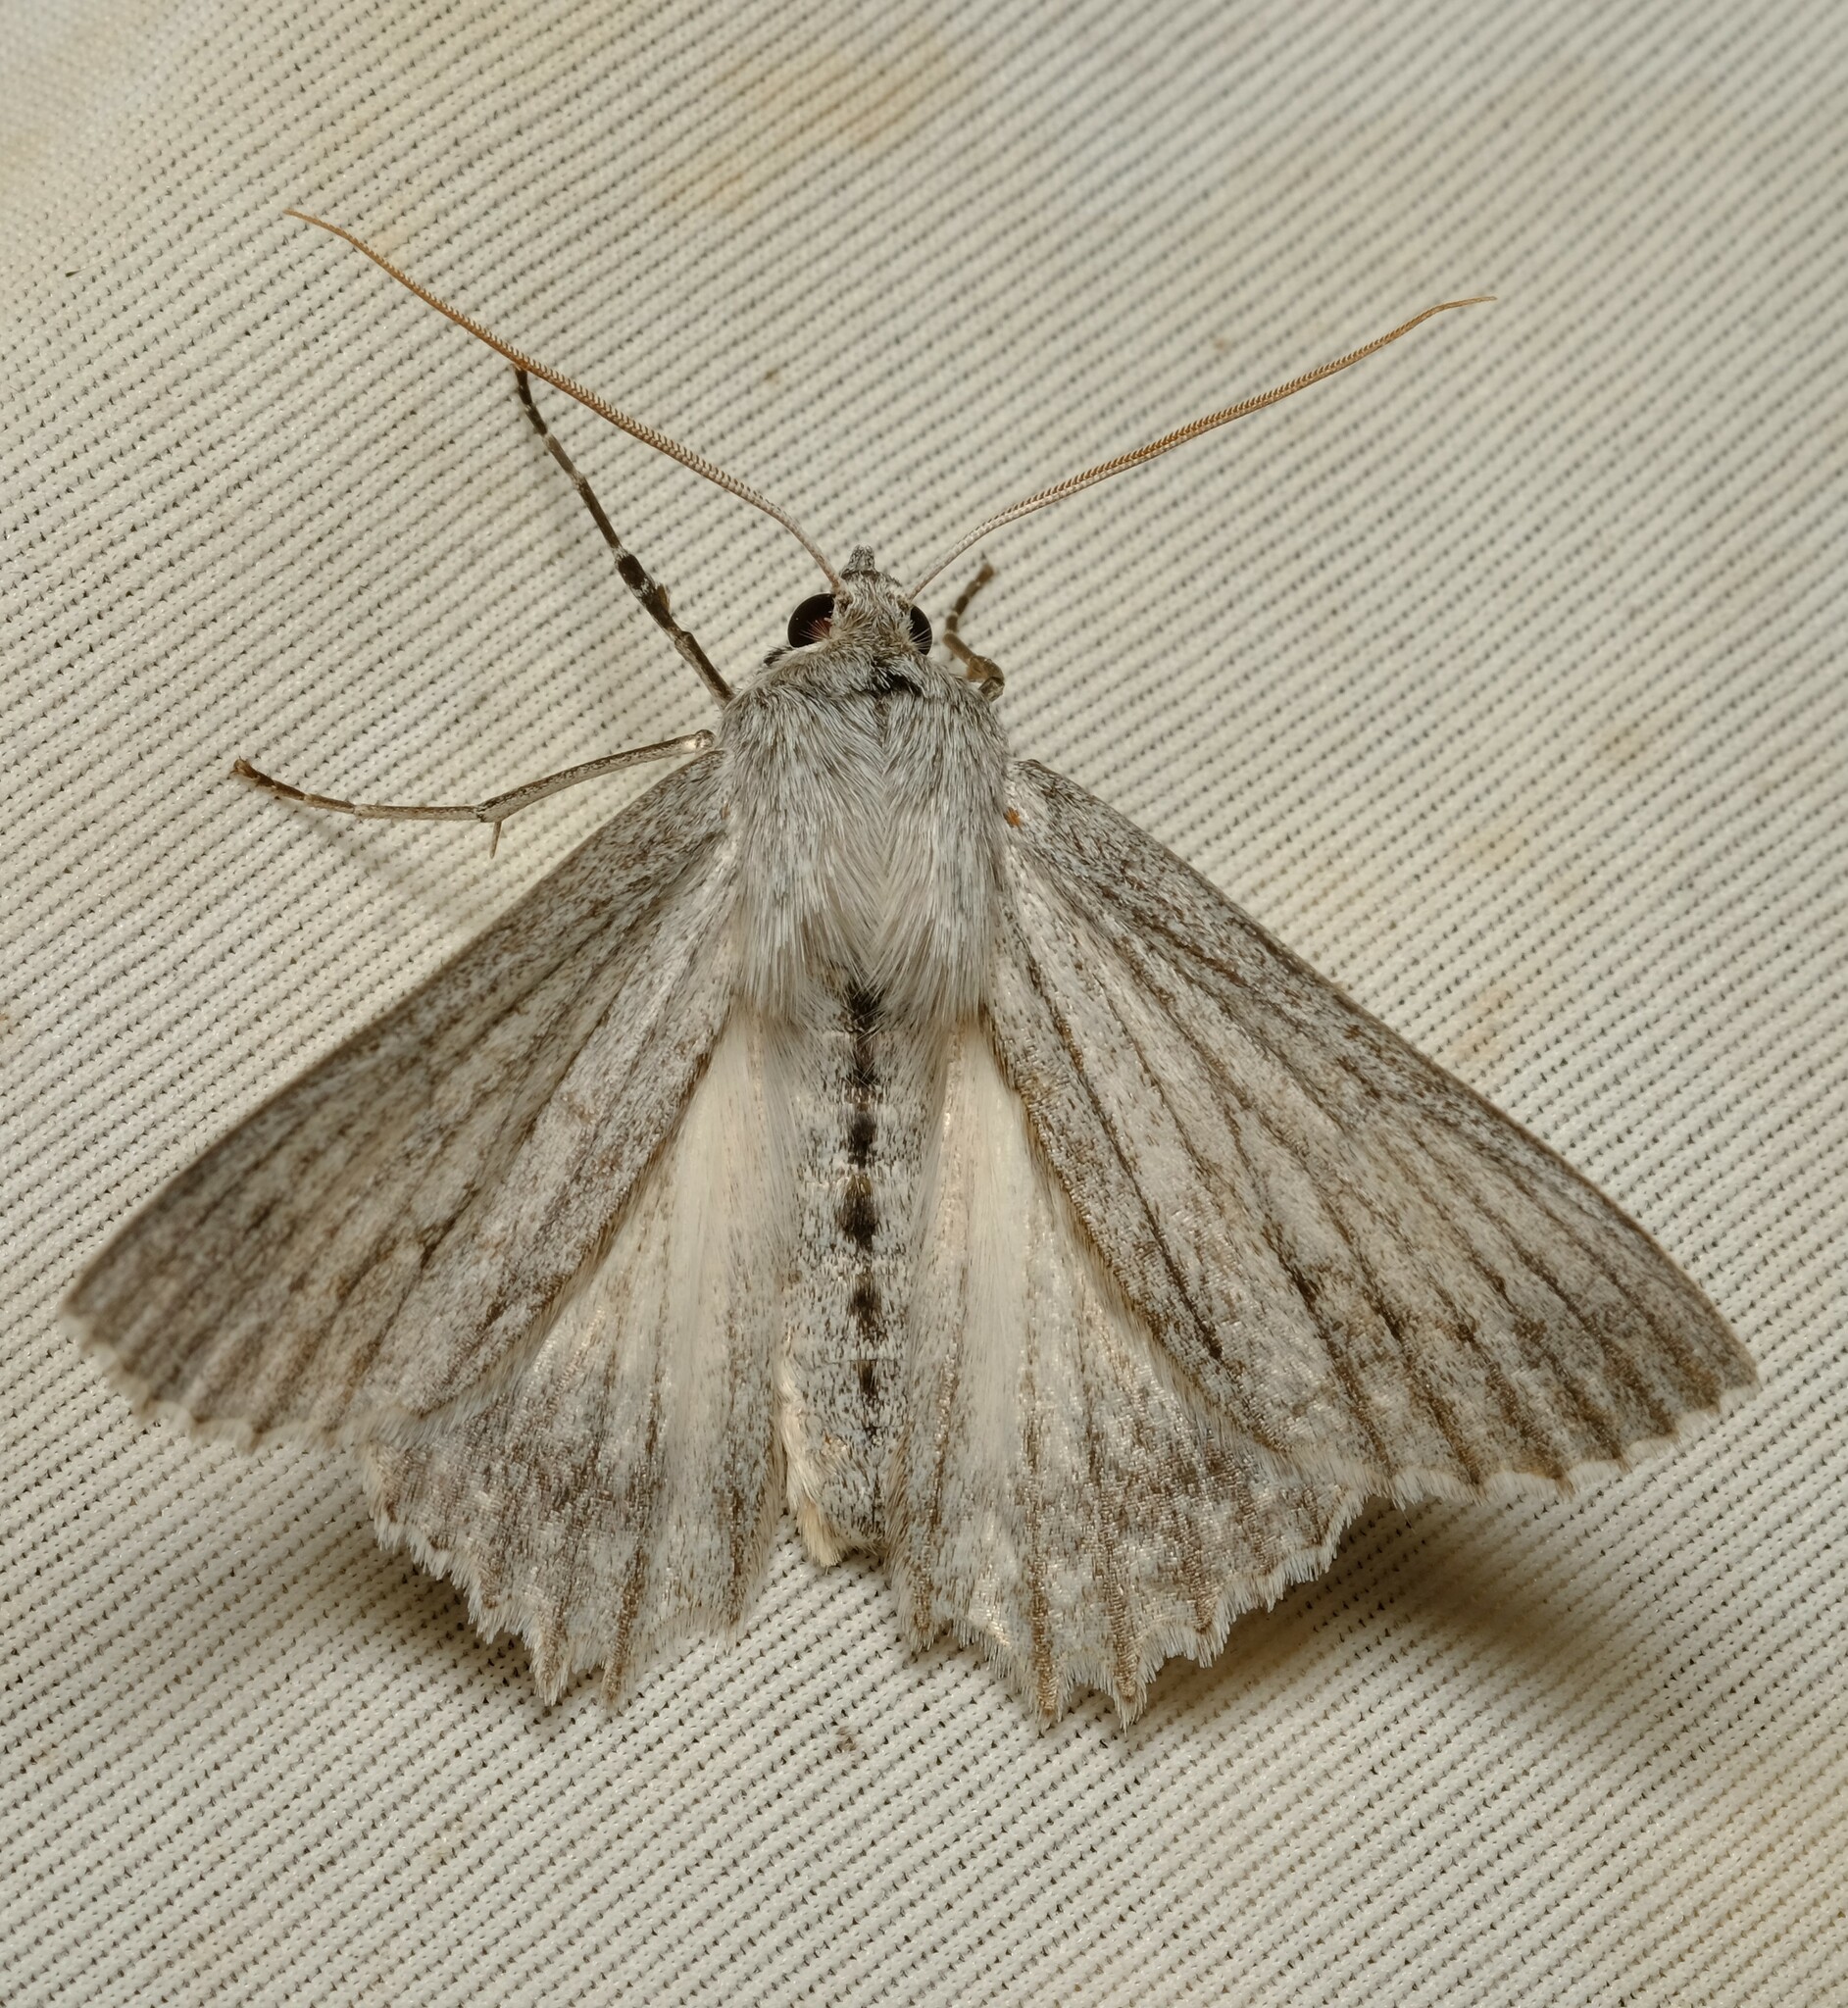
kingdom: Animalia
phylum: Arthropoda
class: Insecta
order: Lepidoptera
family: Geometridae
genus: Paraterpna
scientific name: Paraterpna harrisoni
